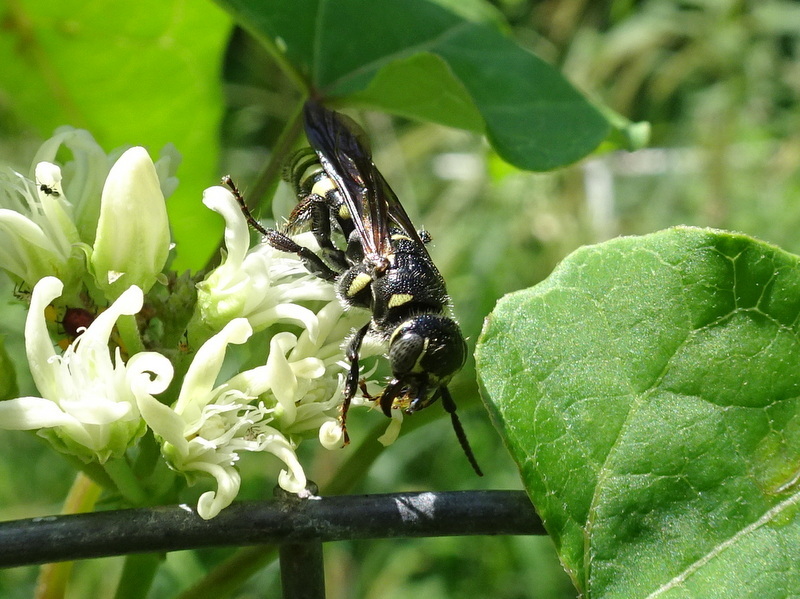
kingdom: Animalia
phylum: Arthropoda
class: Insecta
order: Hymenoptera
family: Tiphiidae
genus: Myzinum
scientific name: Myzinum obscurum
